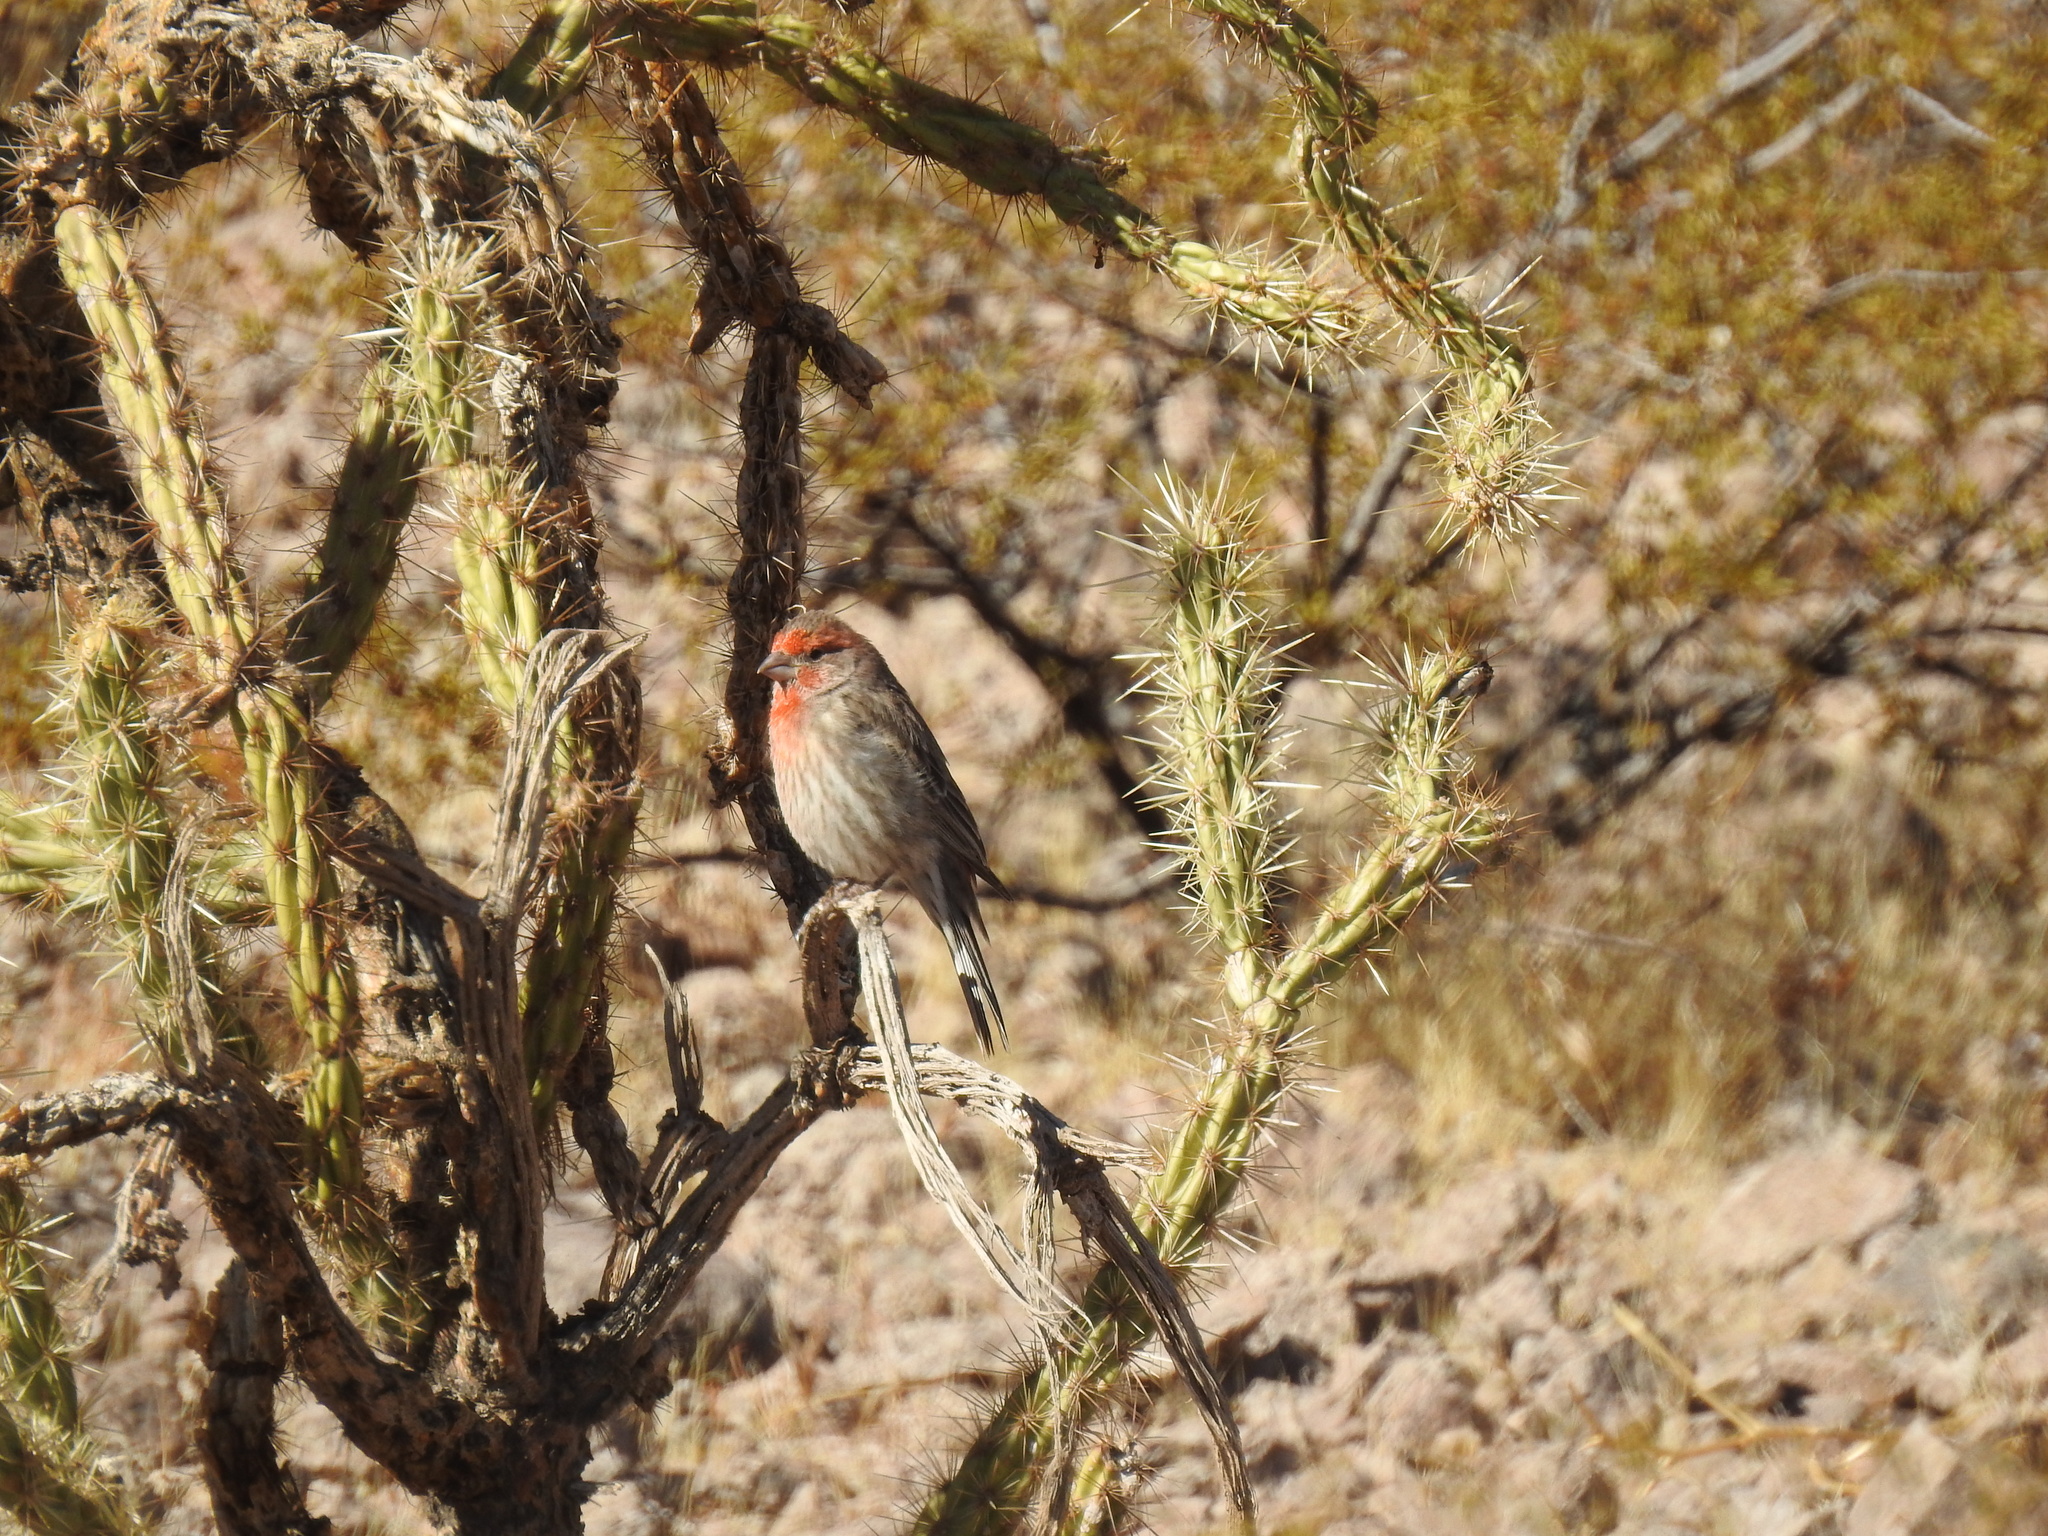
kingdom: Animalia
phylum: Chordata
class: Aves
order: Passeriformes
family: Fringillidae
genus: Haemorhous
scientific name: Haemorhous mexicanus
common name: House finch
